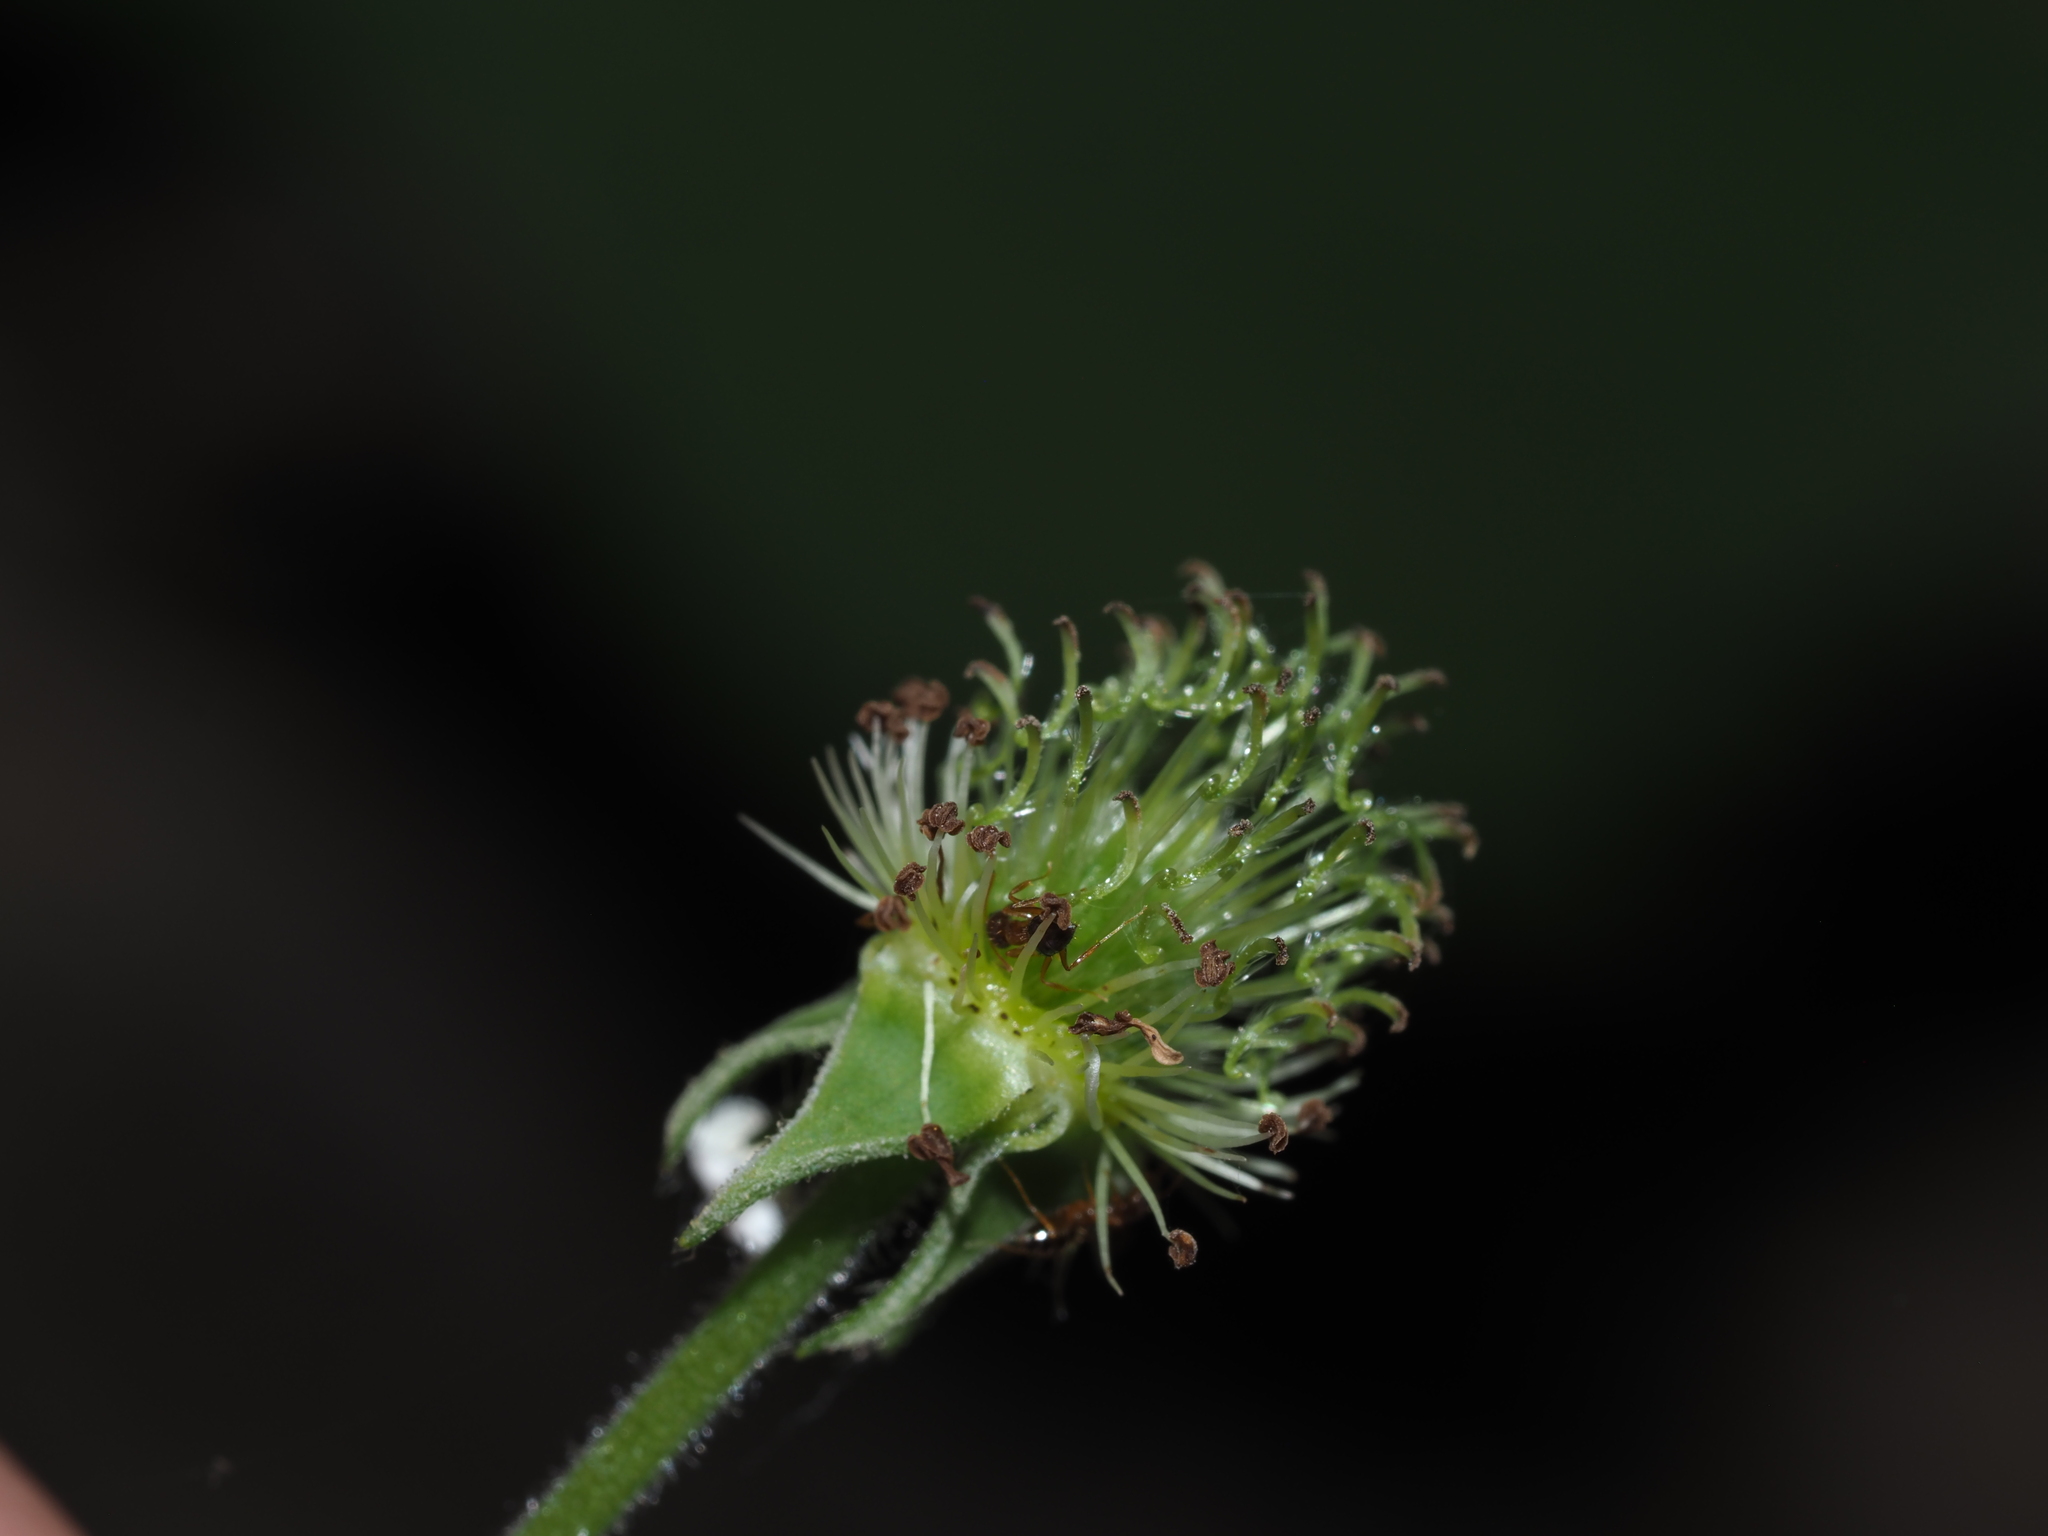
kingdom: Plantae
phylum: Tracheophyta
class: Magnoliopsida
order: Rosales
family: Rosaceae
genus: Geum
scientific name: Geum canadense
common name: White avens
